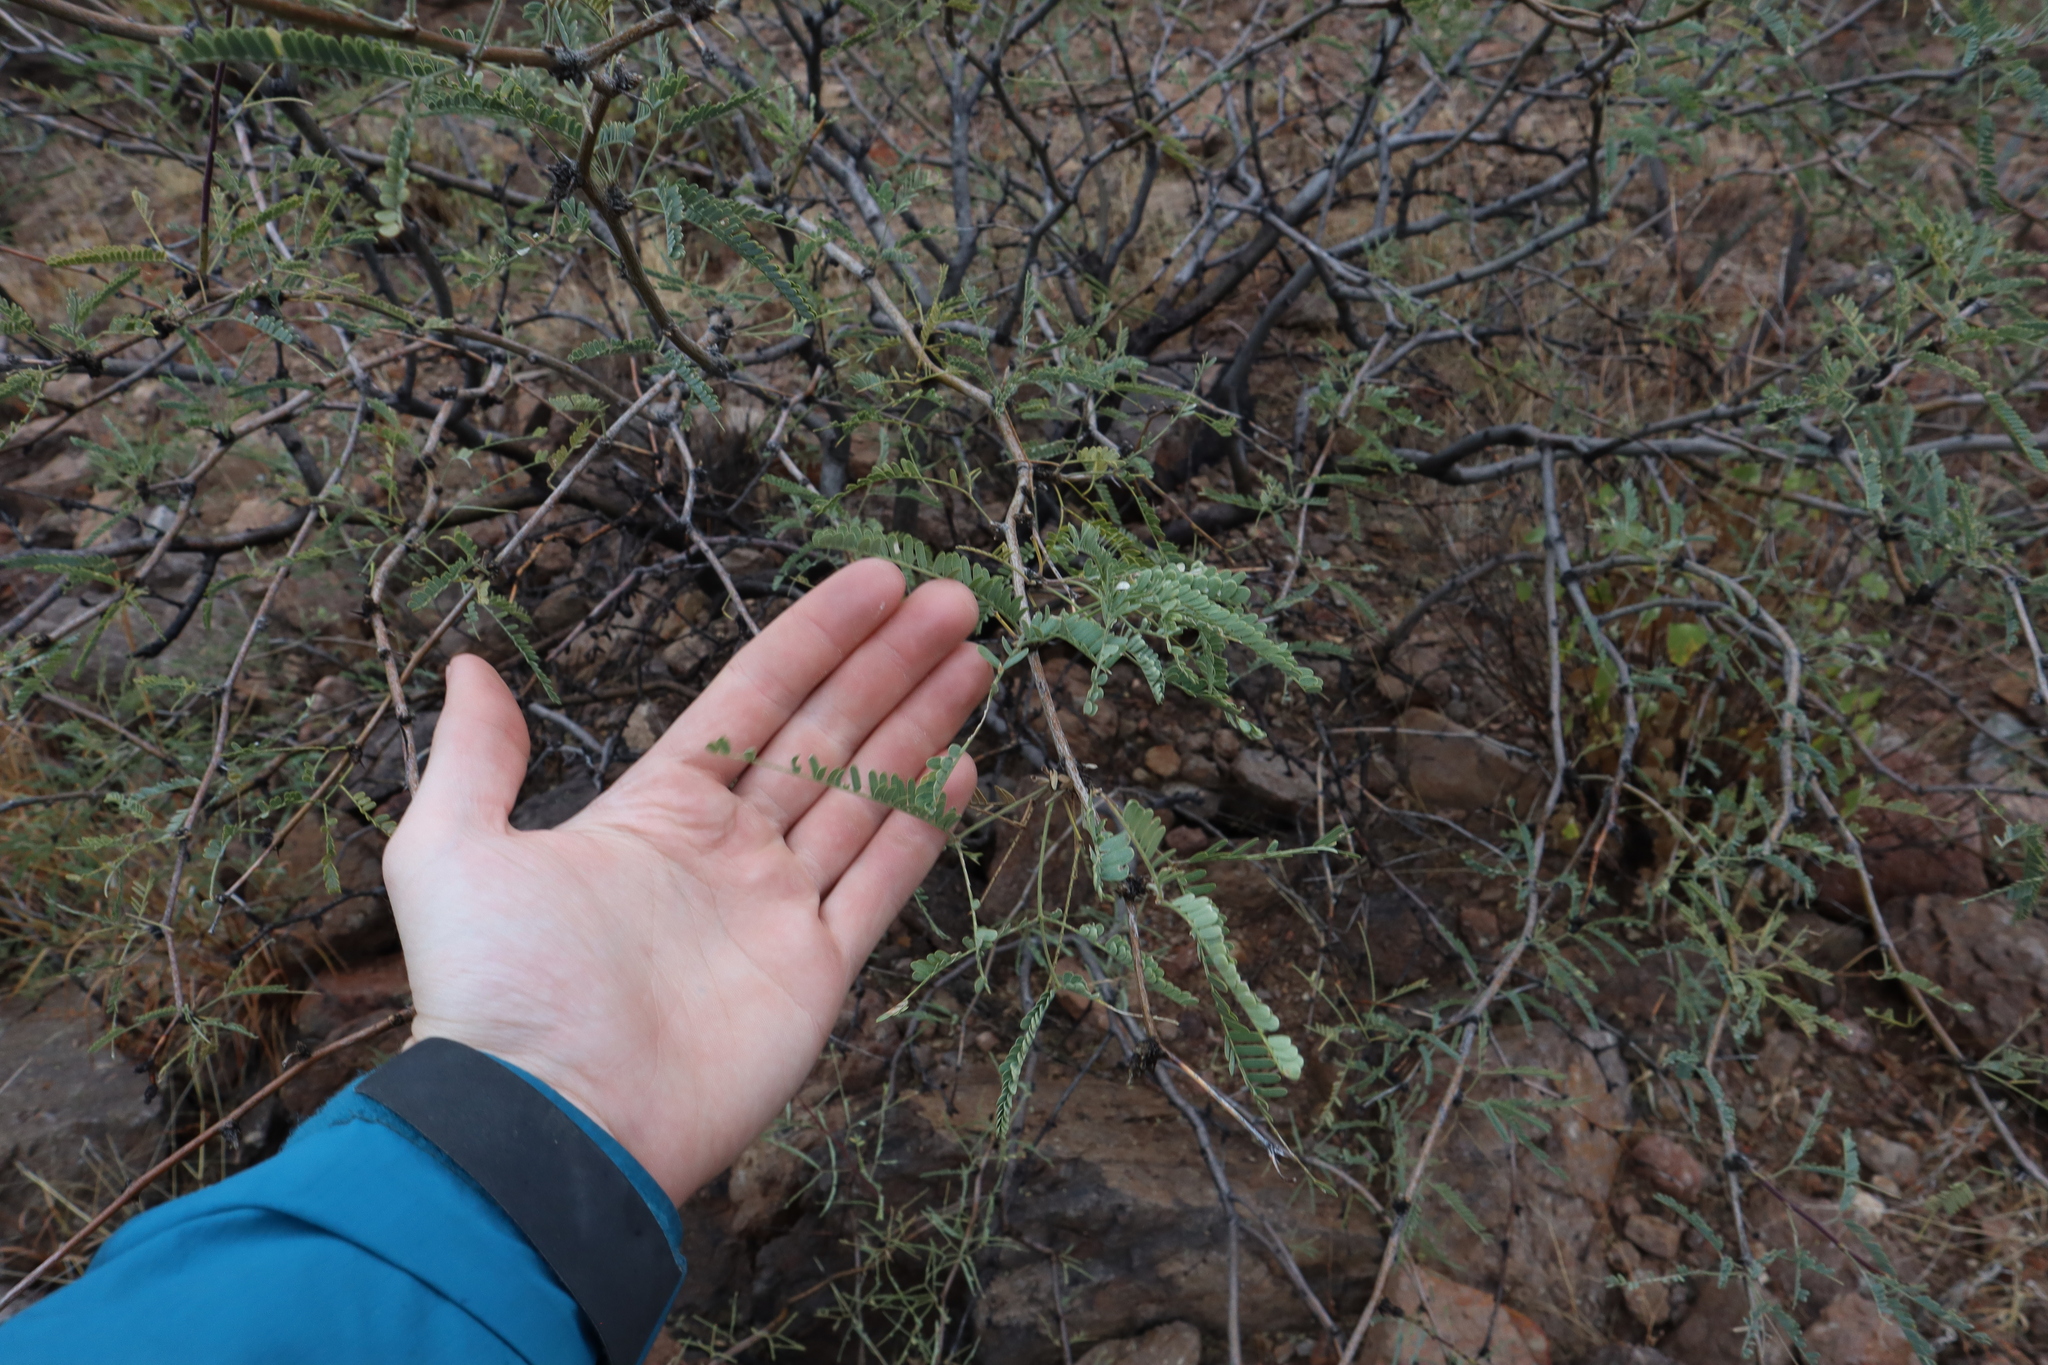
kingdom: Plantae
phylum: Tracheophyta
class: Magnoliopsida
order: Fabales
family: Fabaceae
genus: Prosopis
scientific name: Prosopis velutina
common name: Velvet mesquite
